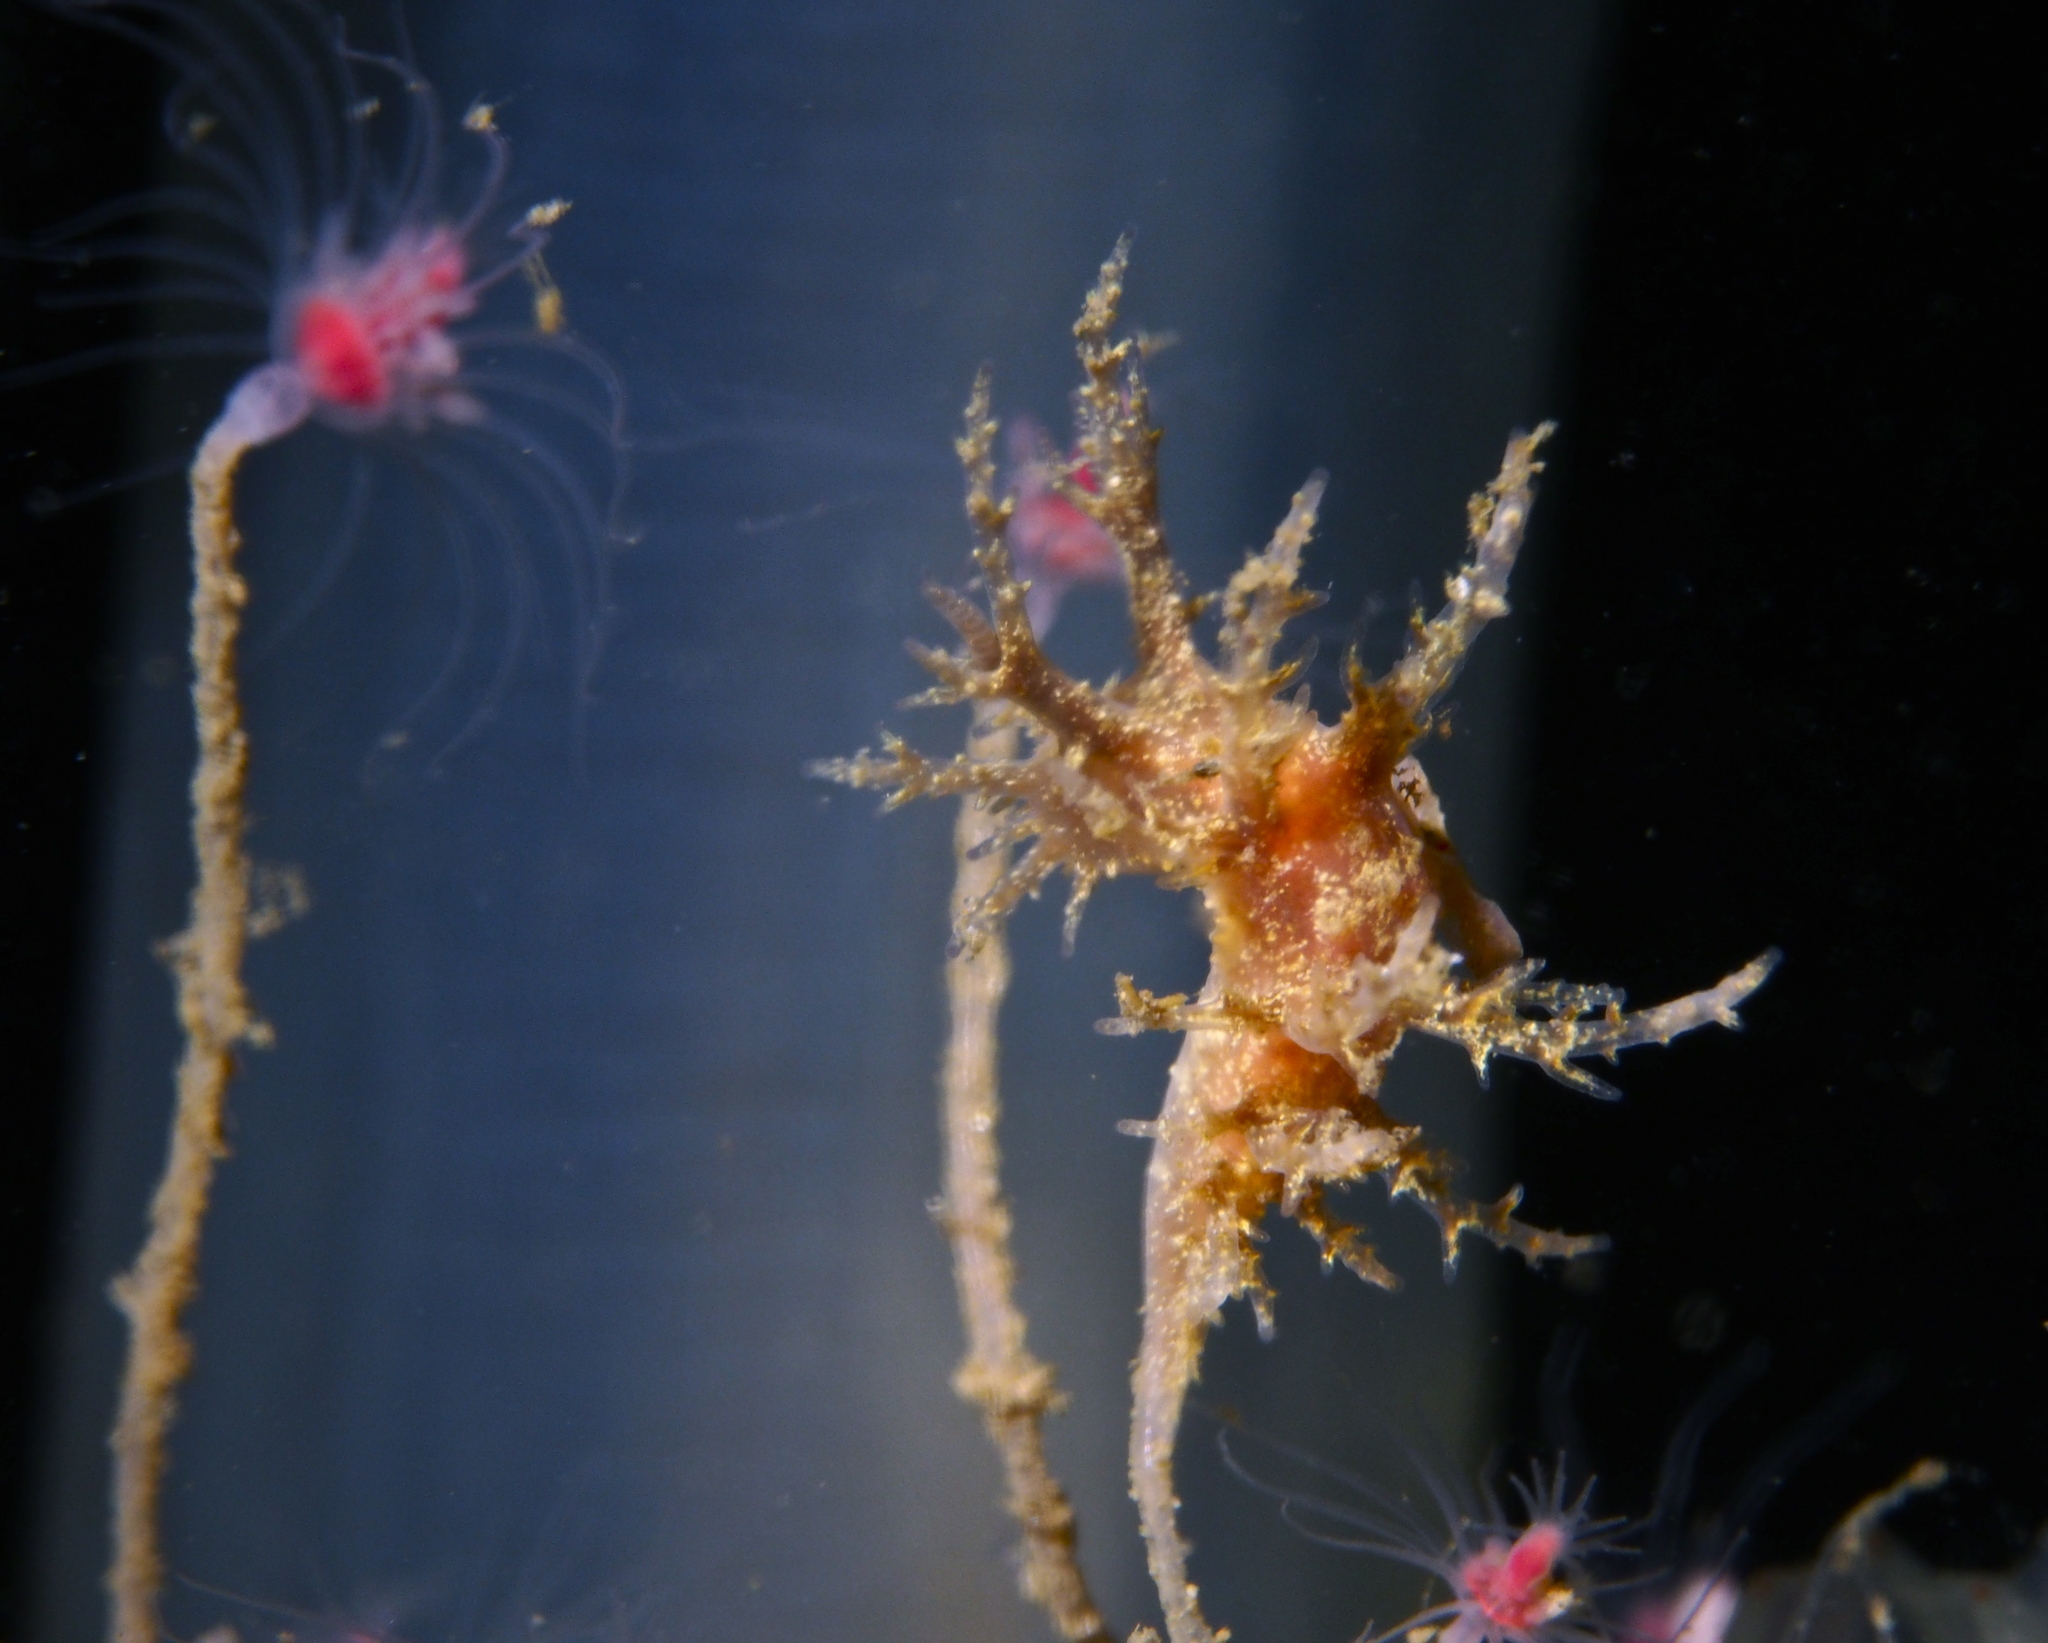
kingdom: Animalia
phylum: Mollusca
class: Gastropoda
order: Nudibranchia
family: Dendronotidae
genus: Dendronotus
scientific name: Dendronotus frondosus
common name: Bushy-backed nudibranch
